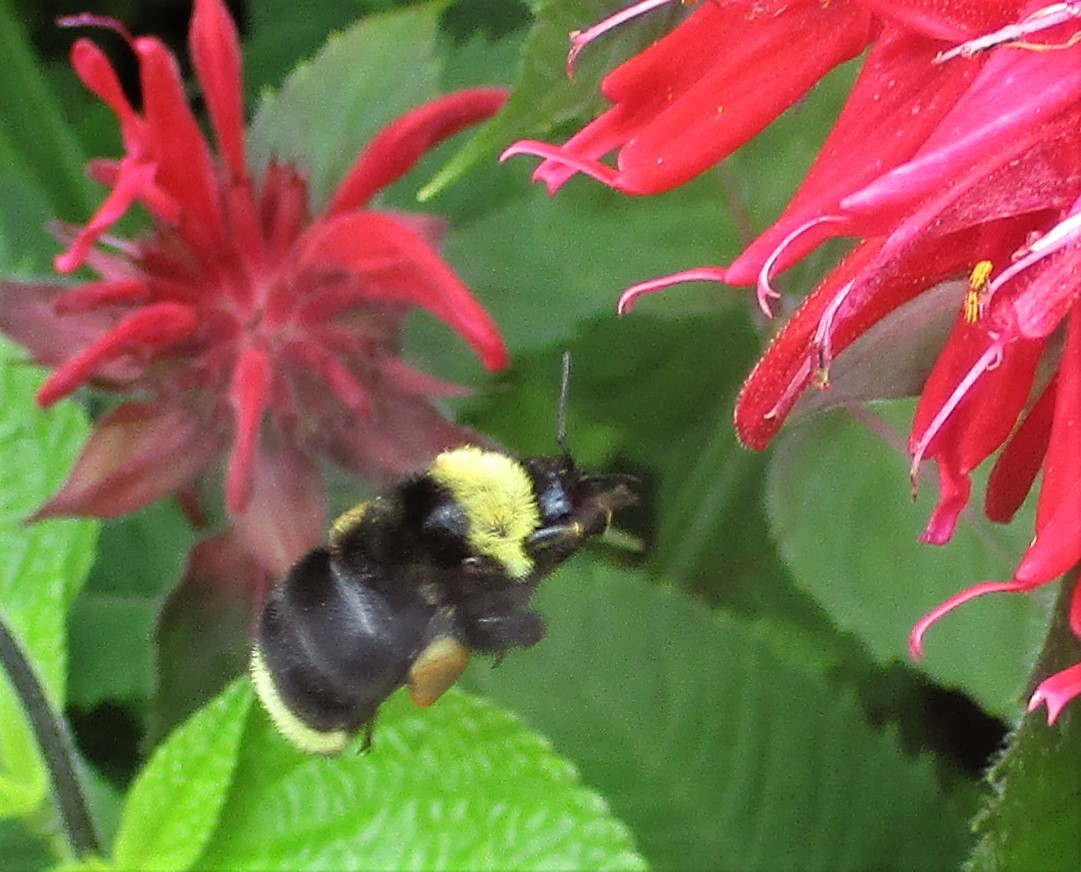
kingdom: Animalia
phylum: Arthropoda
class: Insecta
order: Hymenoptera
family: Apidae
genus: Bombus
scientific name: Bombus californicus
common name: California bumble bee
